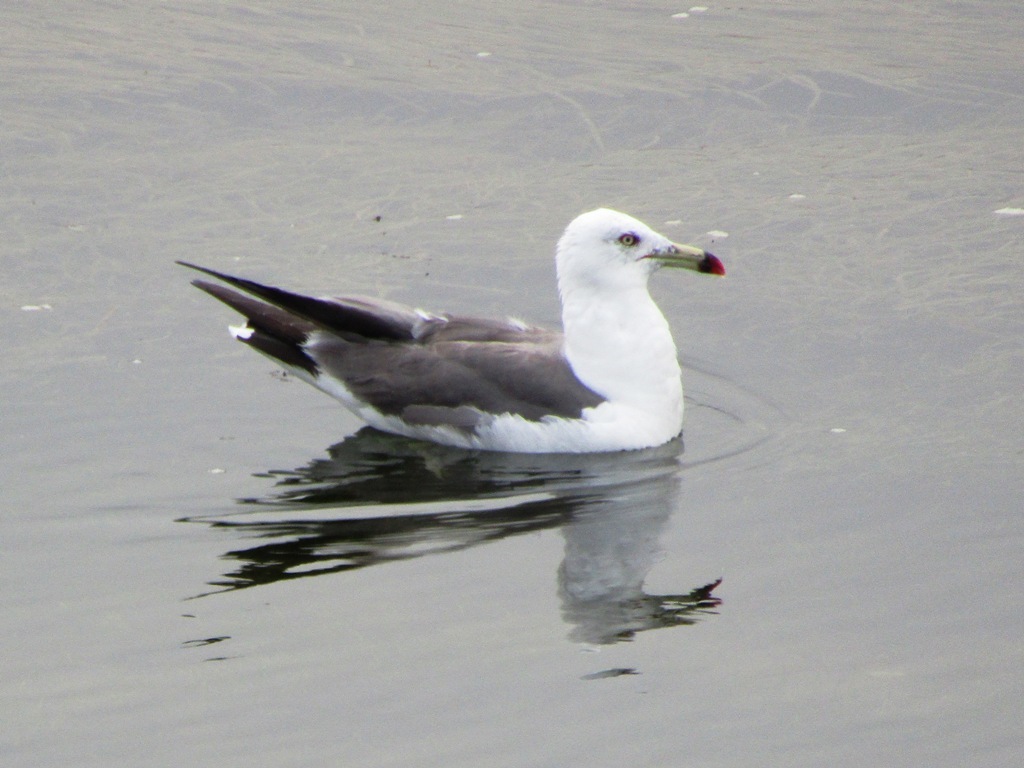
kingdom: Animalia
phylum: Chordata
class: Aves
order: Charadriiformes
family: Laridae
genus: Larus
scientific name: Larus crassirostris
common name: Black-tailed gull
